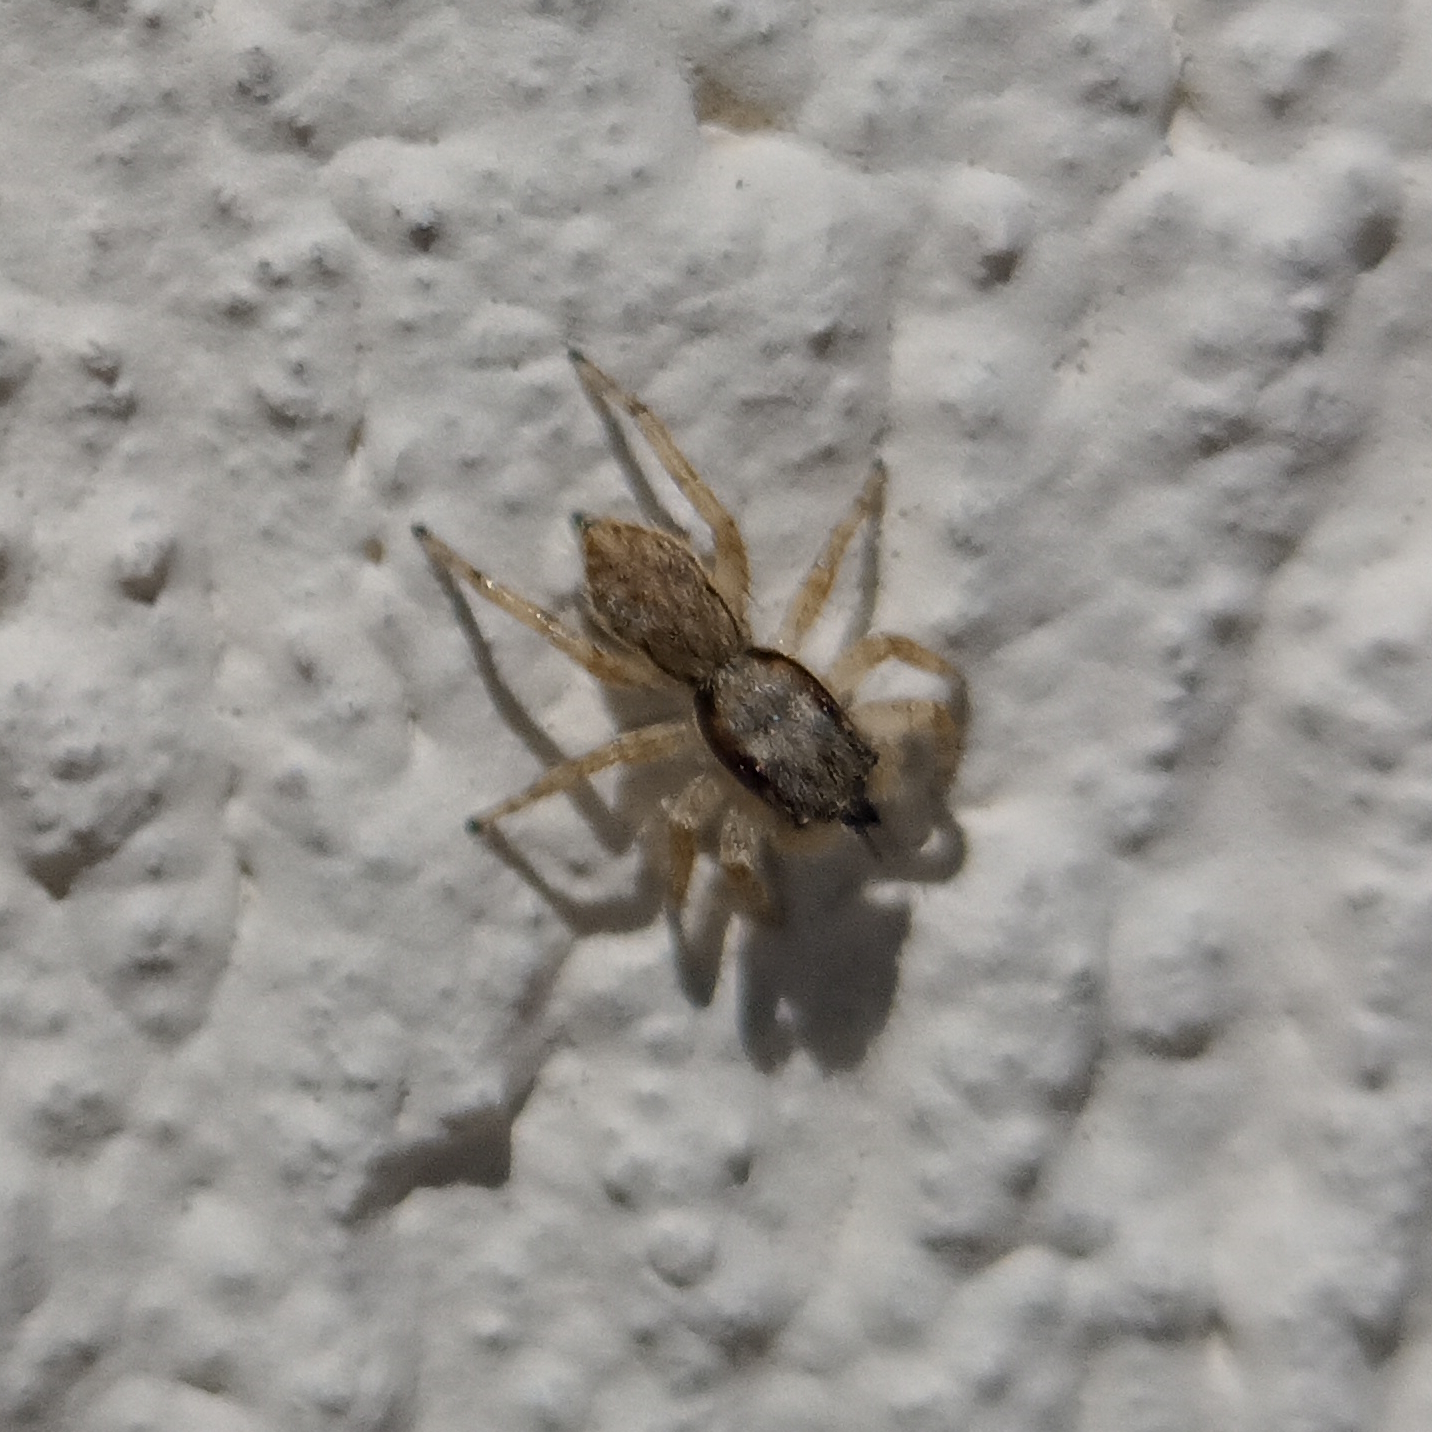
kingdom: Animalia
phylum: Arthropoda
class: Arachnida
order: Araneae
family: Salticidae
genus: Menemerus
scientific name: Menemerus bivittatus
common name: Gray wall jumper
